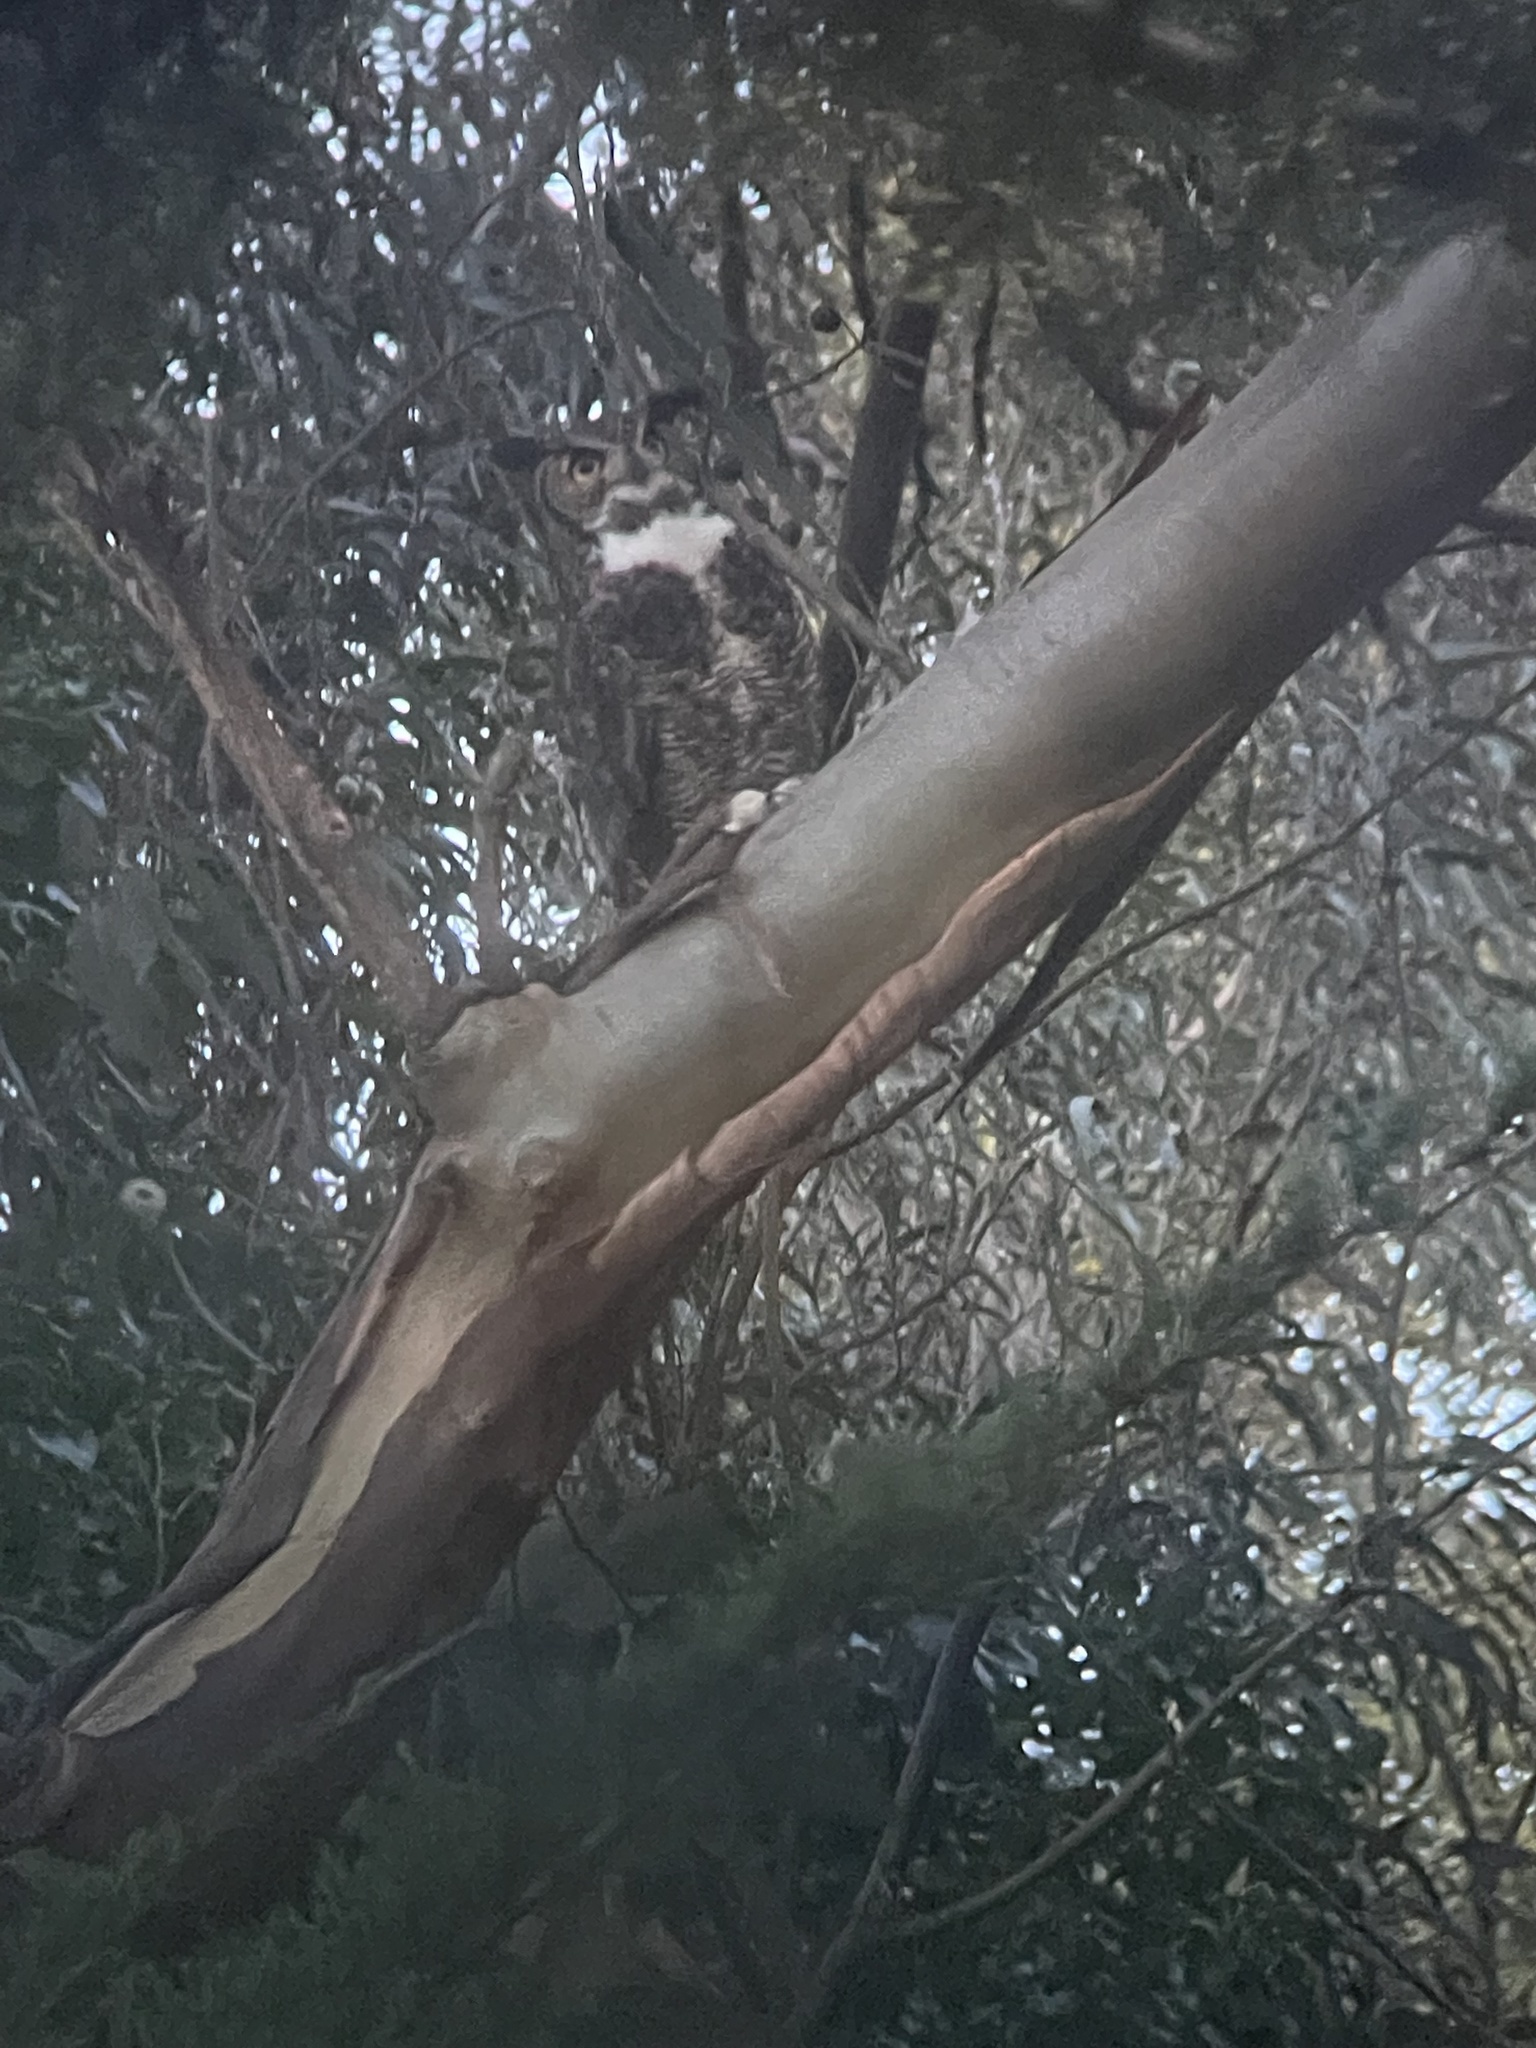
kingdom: Animalia
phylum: Chordata
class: Aves
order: Strigiformes
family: Strigidae
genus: Bubo
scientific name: Bubo virginianus
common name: Great horned owl
